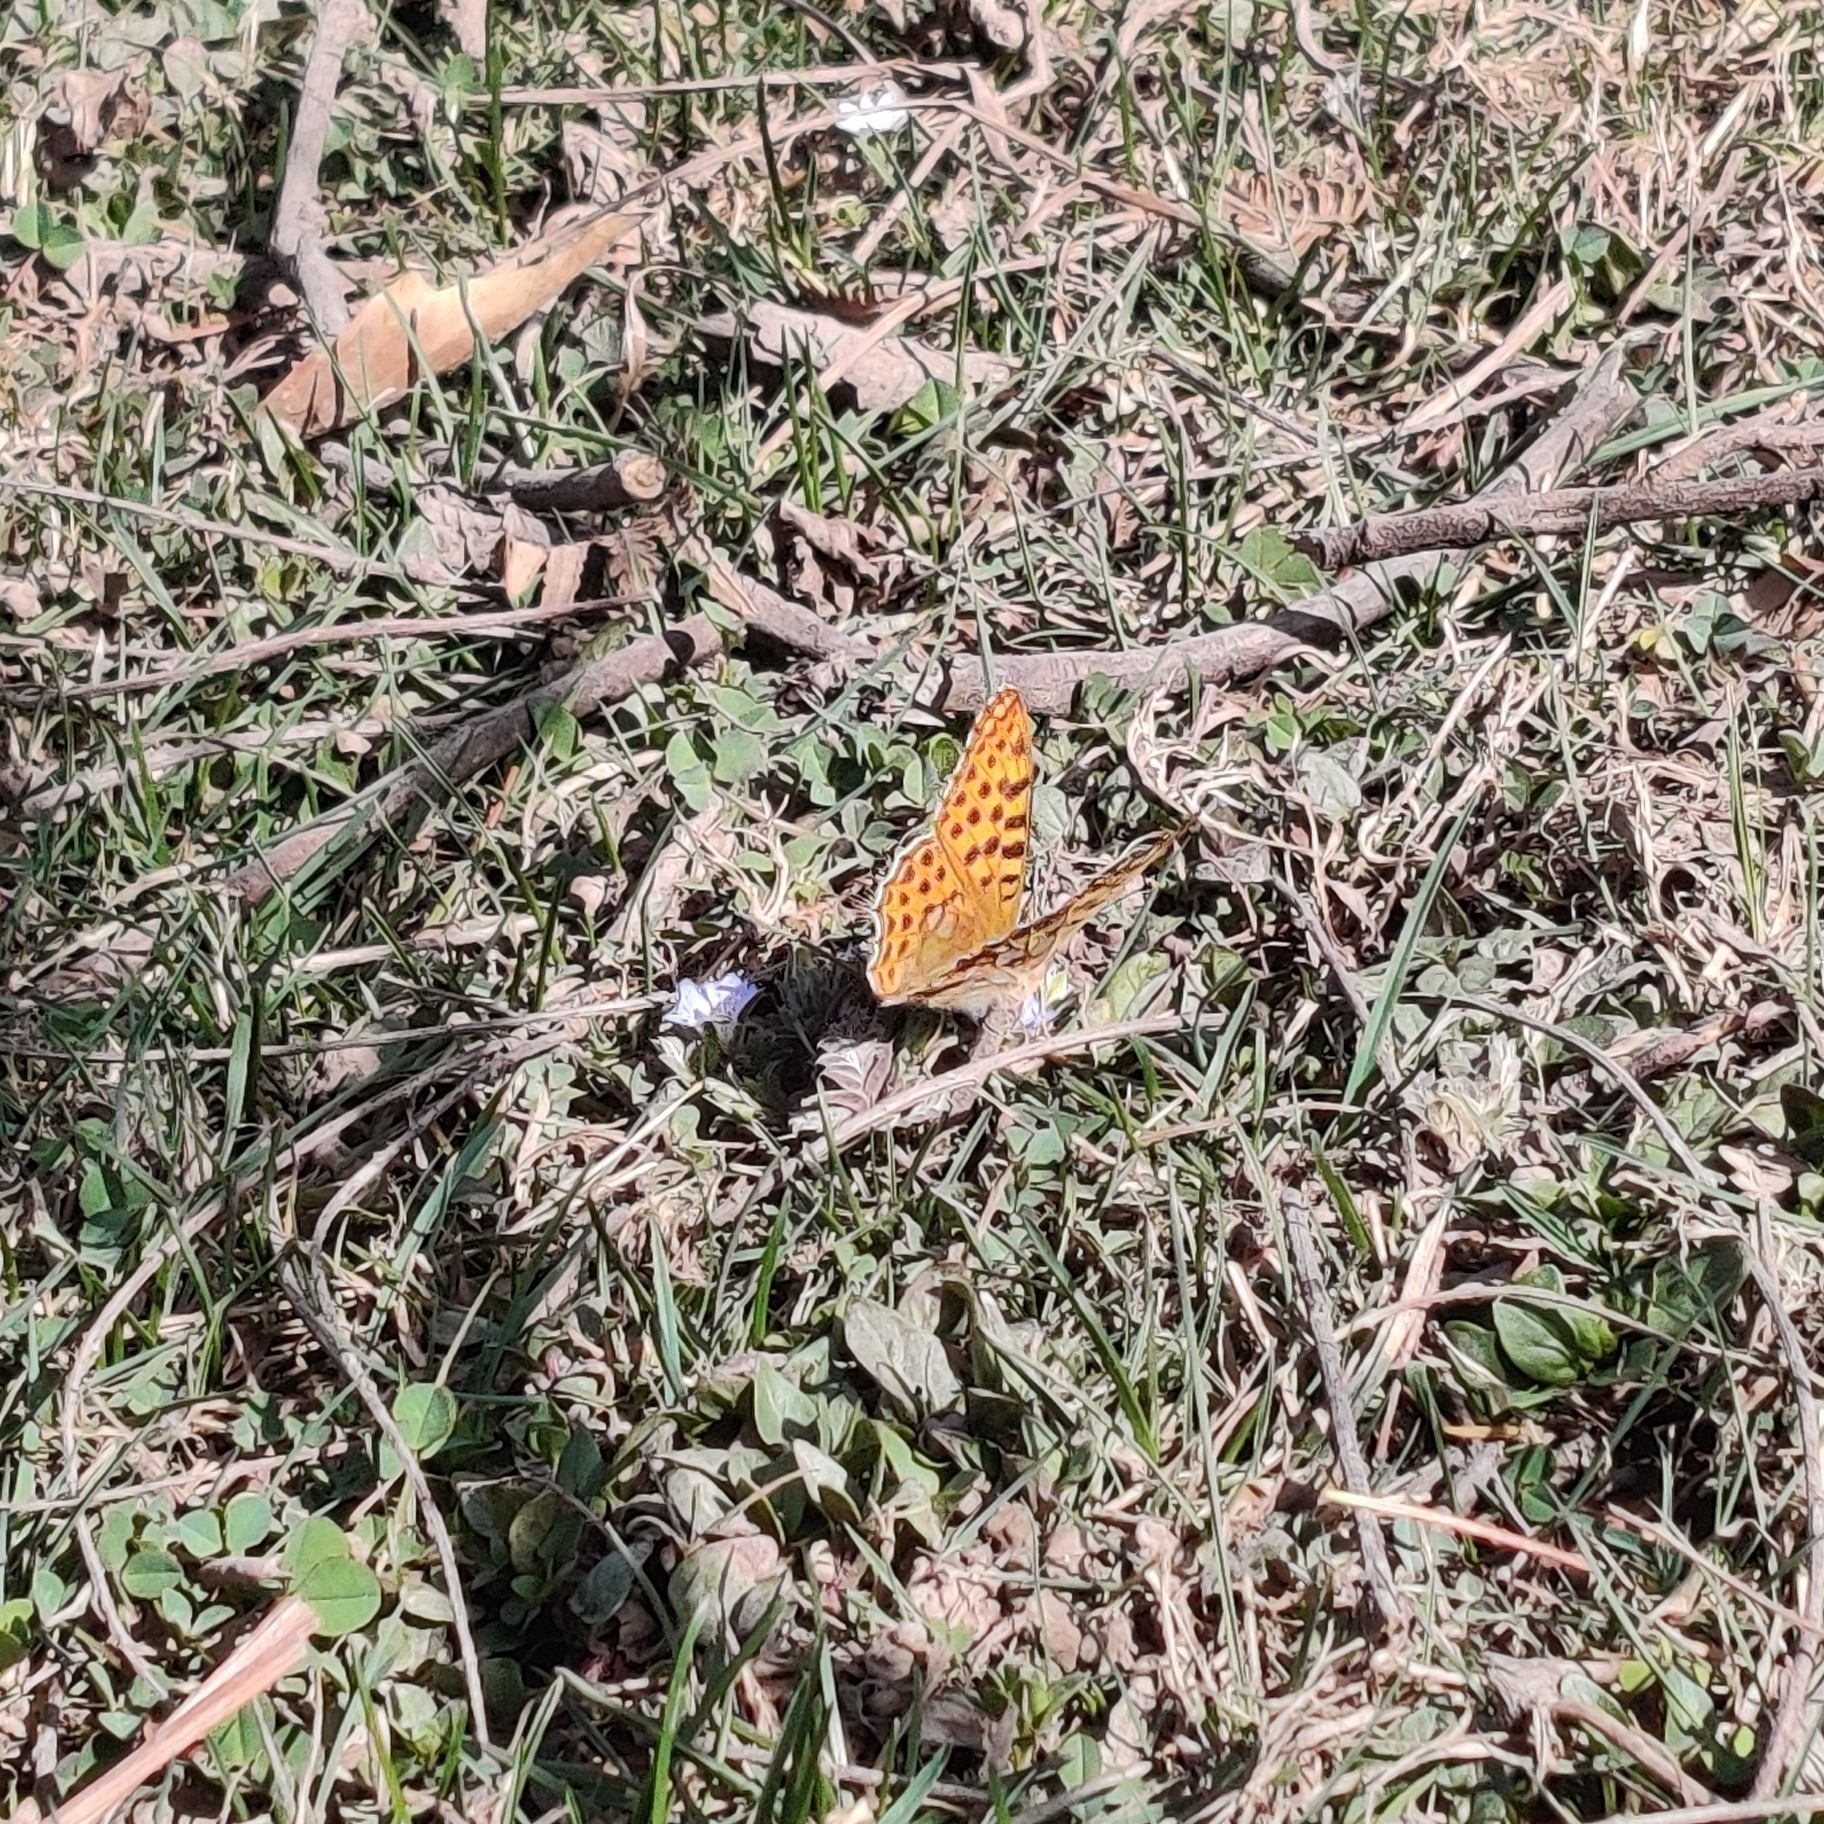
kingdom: Animalia
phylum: Arthropoda
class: Insecta
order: Lepidoptera
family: Nymphalidae
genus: Issoria
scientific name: Issoria
